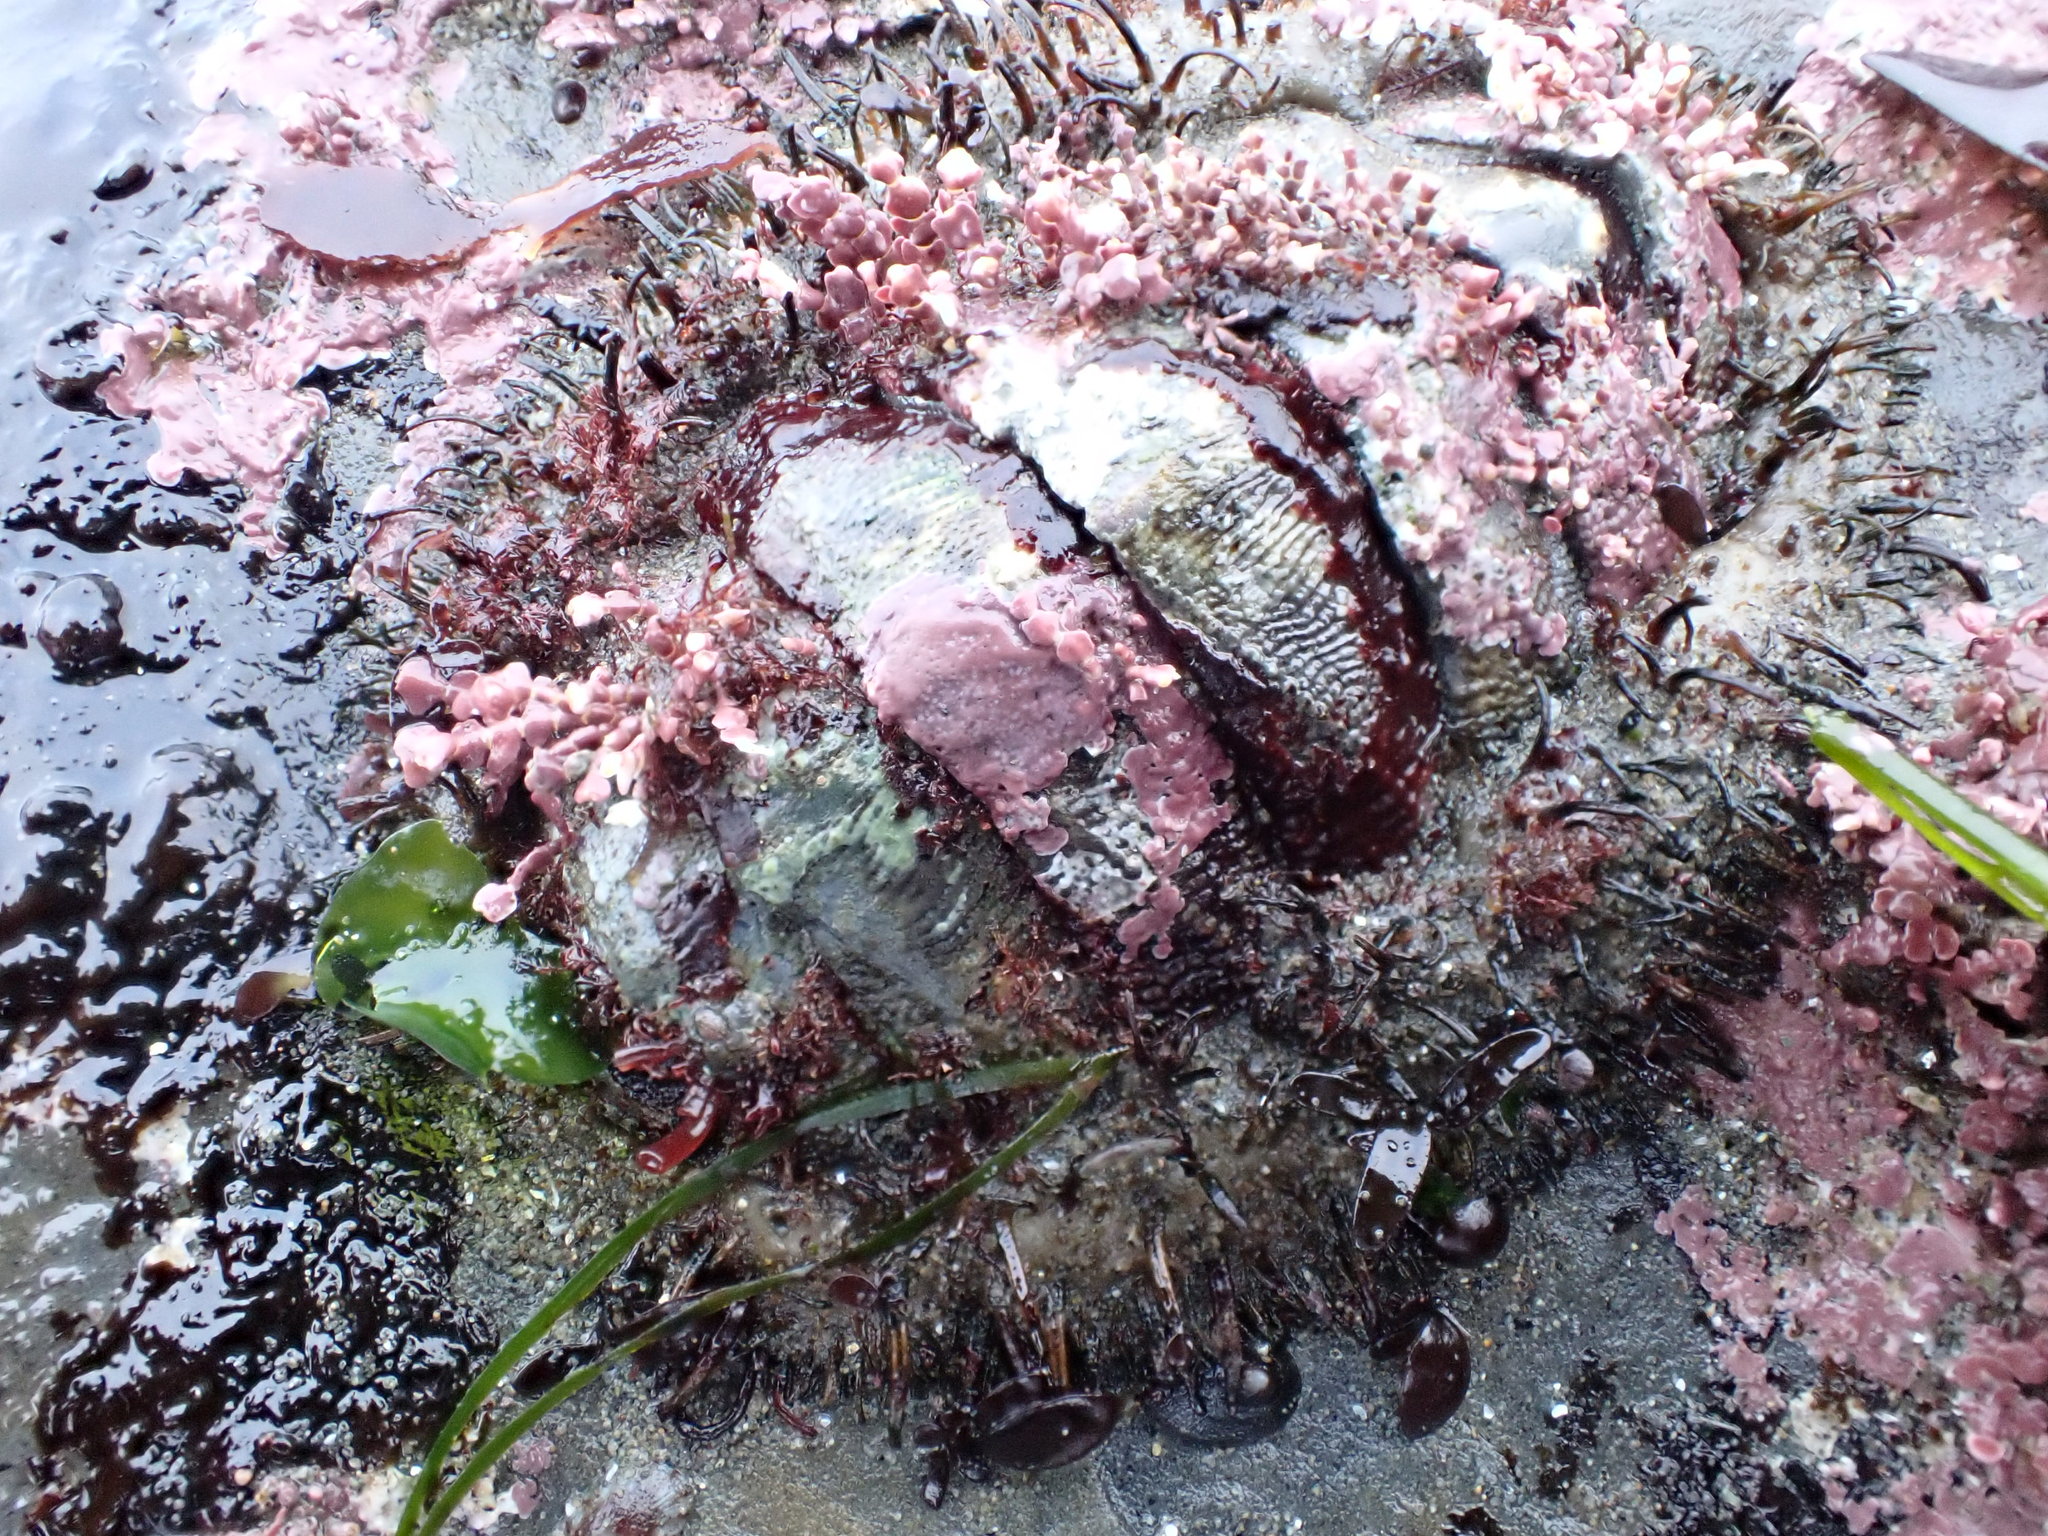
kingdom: Animalia
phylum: Mollusca
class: Polyplacophora
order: Chitonida
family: Mopaliidae
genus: Mopalia
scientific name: Mopalia muscosa
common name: Mossy chiton
